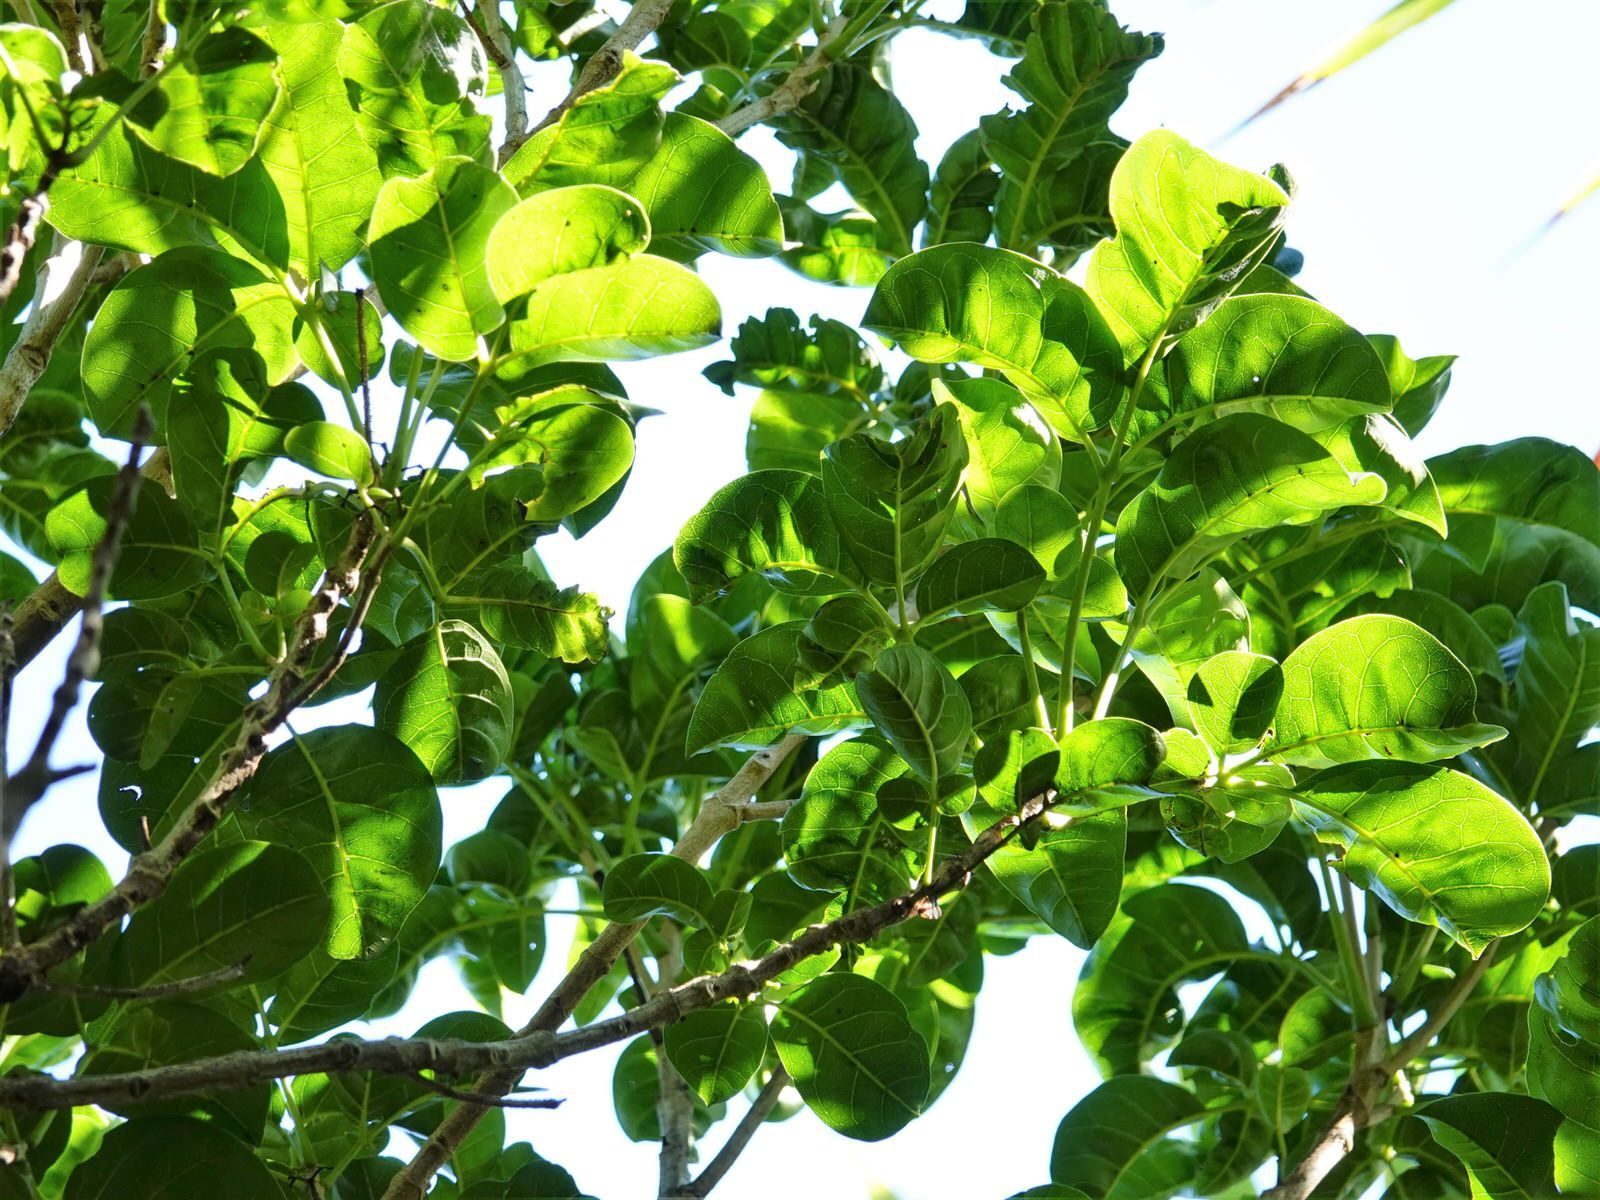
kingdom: Plantae
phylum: Tracheophyta
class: Magnoliopsida
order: Lamiales
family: Lamiaceae
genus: Vitex
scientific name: Vitex lucens
